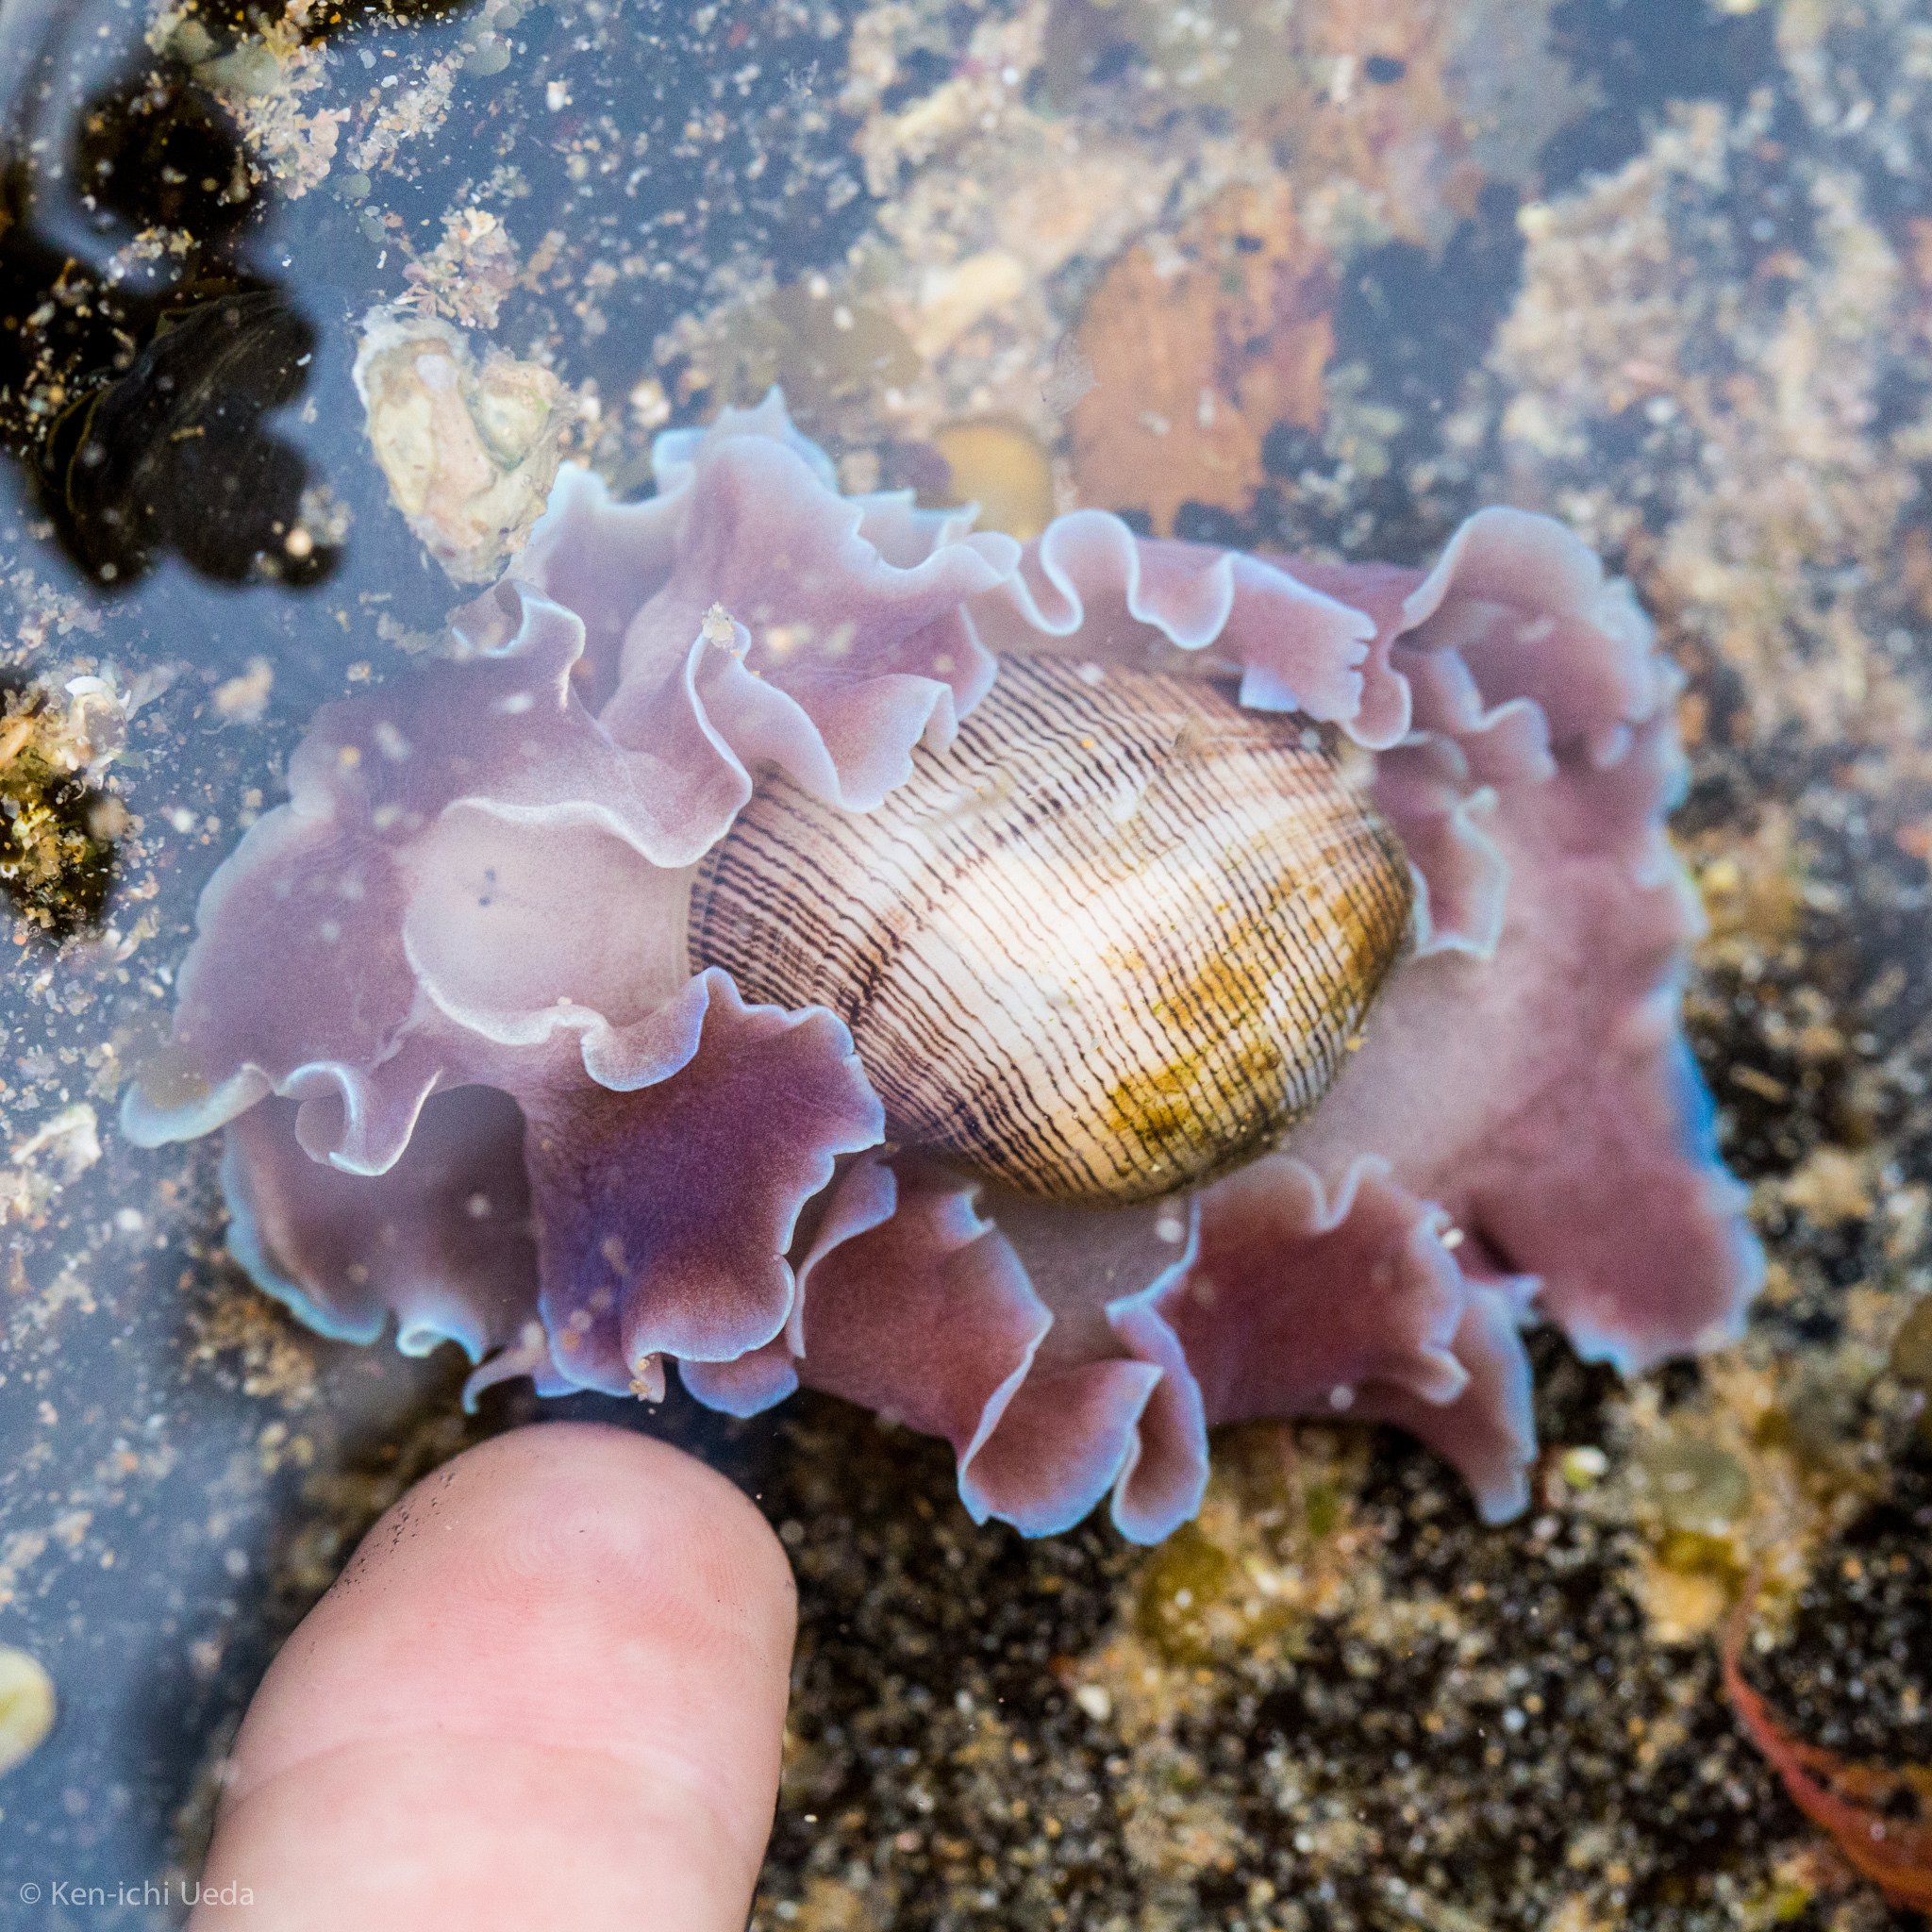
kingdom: Animalia
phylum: Mollusca
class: Gastropoda
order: Cephalaspidea
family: Aplustridae
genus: Hydatina
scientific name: Hydatina physis
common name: Brown-line paperbubble
